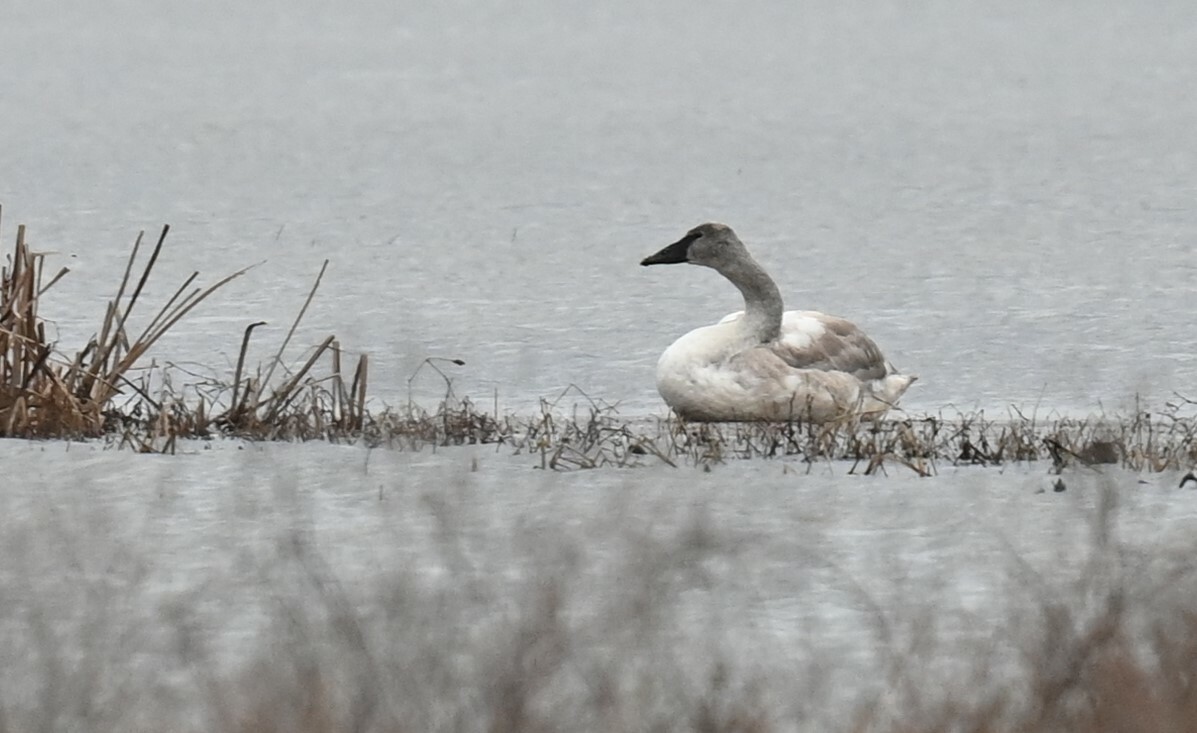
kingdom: Animalia
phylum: Chordata
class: Aves
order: Anseriformes
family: Anatidae
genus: Cygnus
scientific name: Cygnus buccinator
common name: Trumpeter swan
